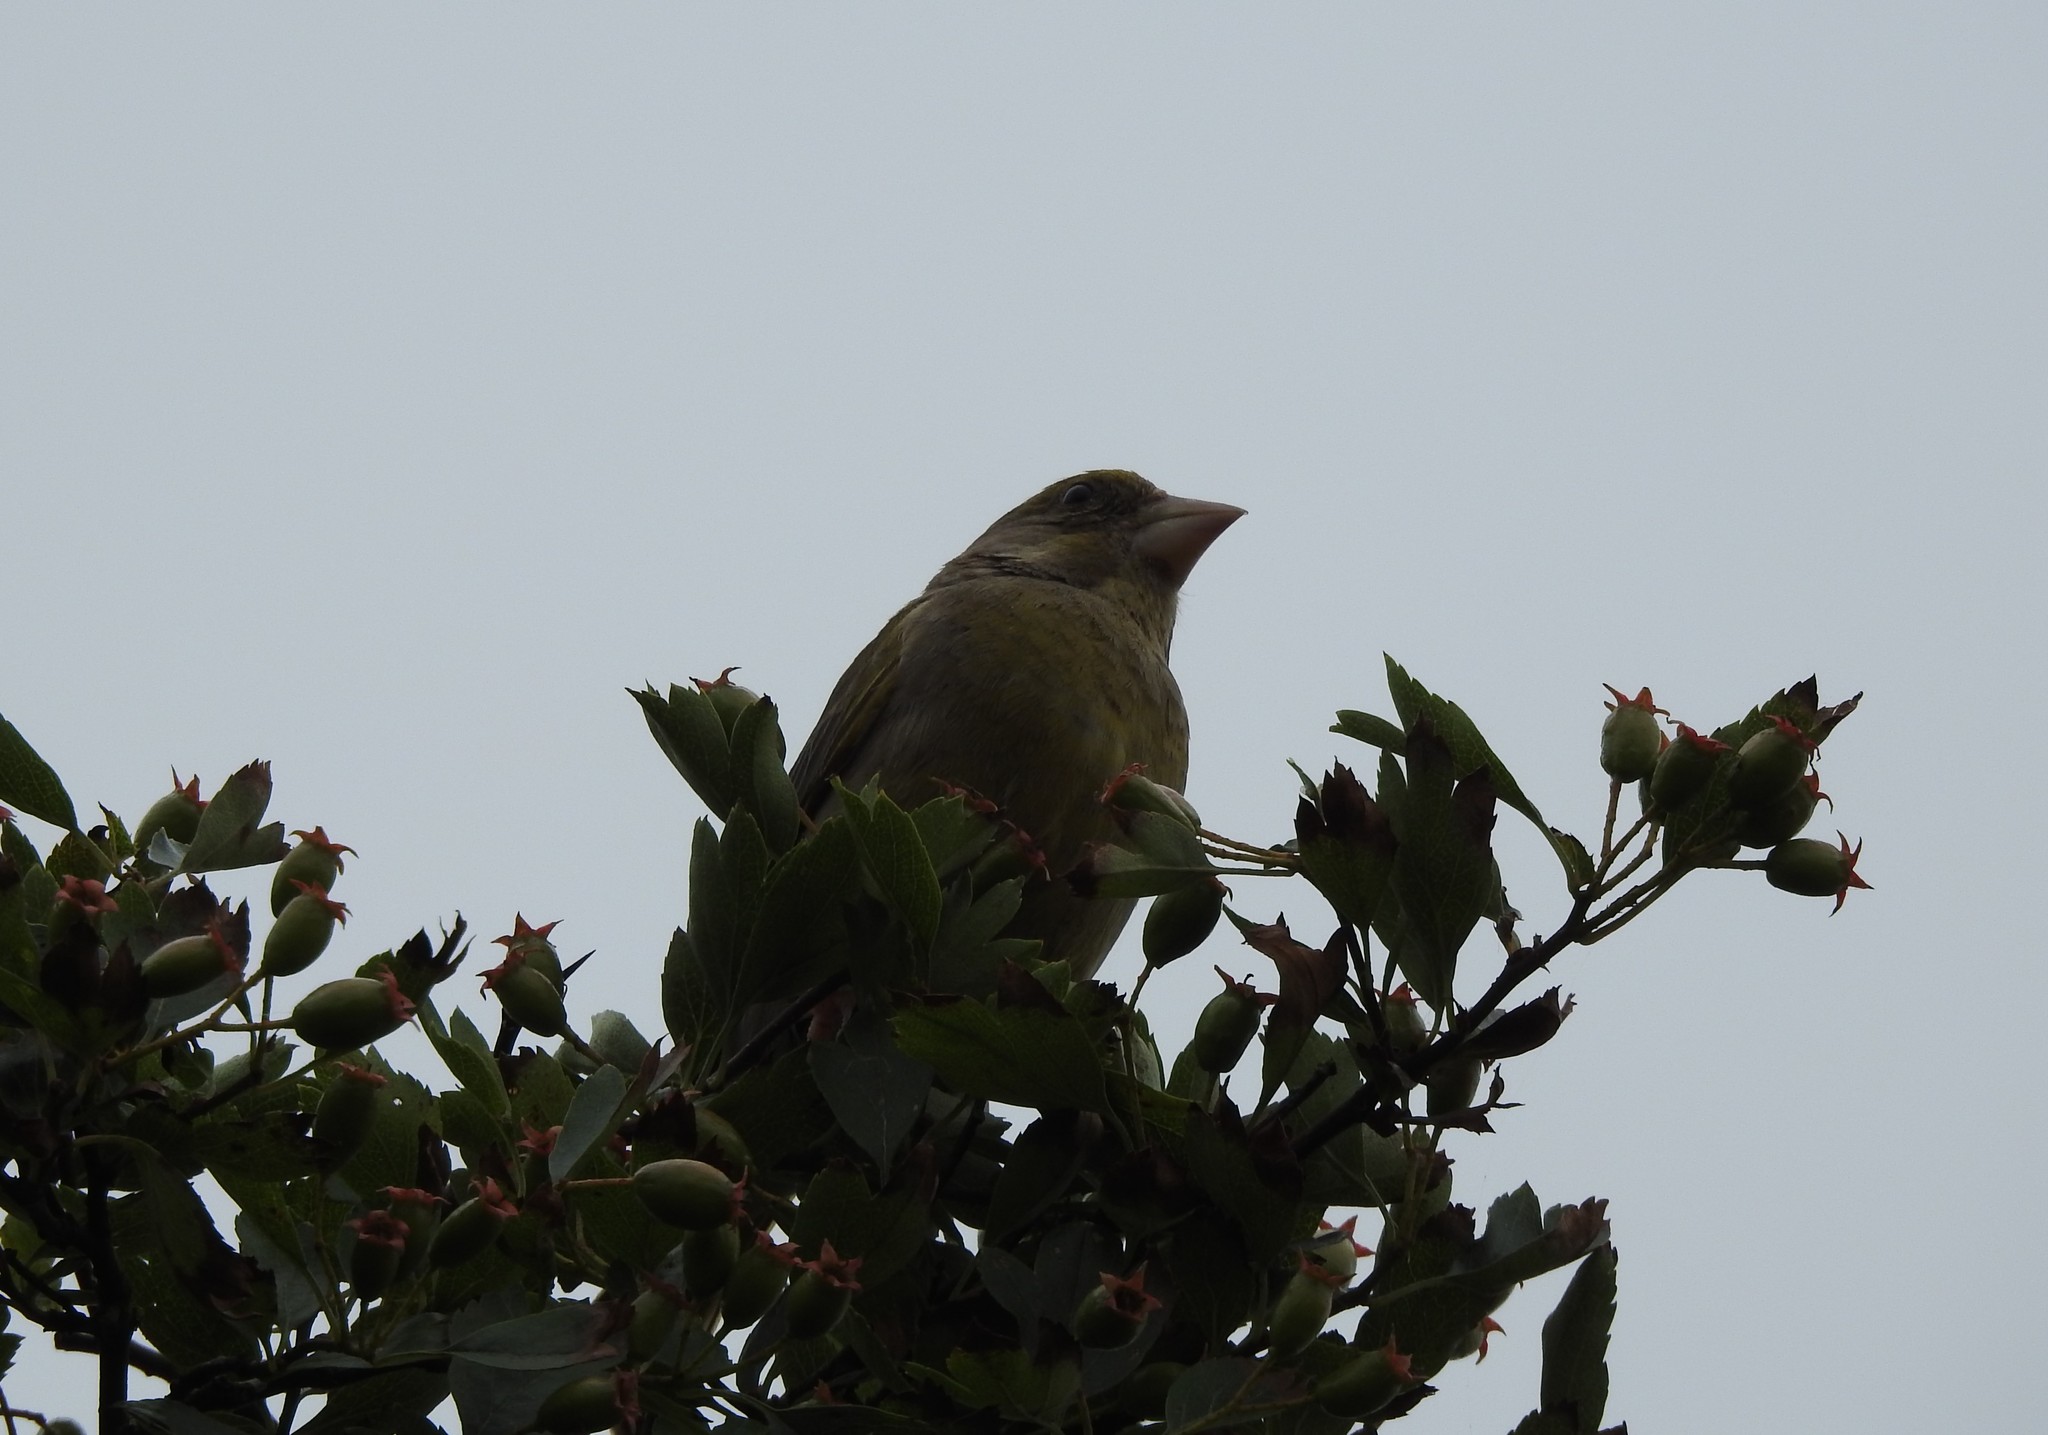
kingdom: Plantae
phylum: Tracheophyta
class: Liliopsida
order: Poales
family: Poaceae
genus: Chloris
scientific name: Chloris chloris
